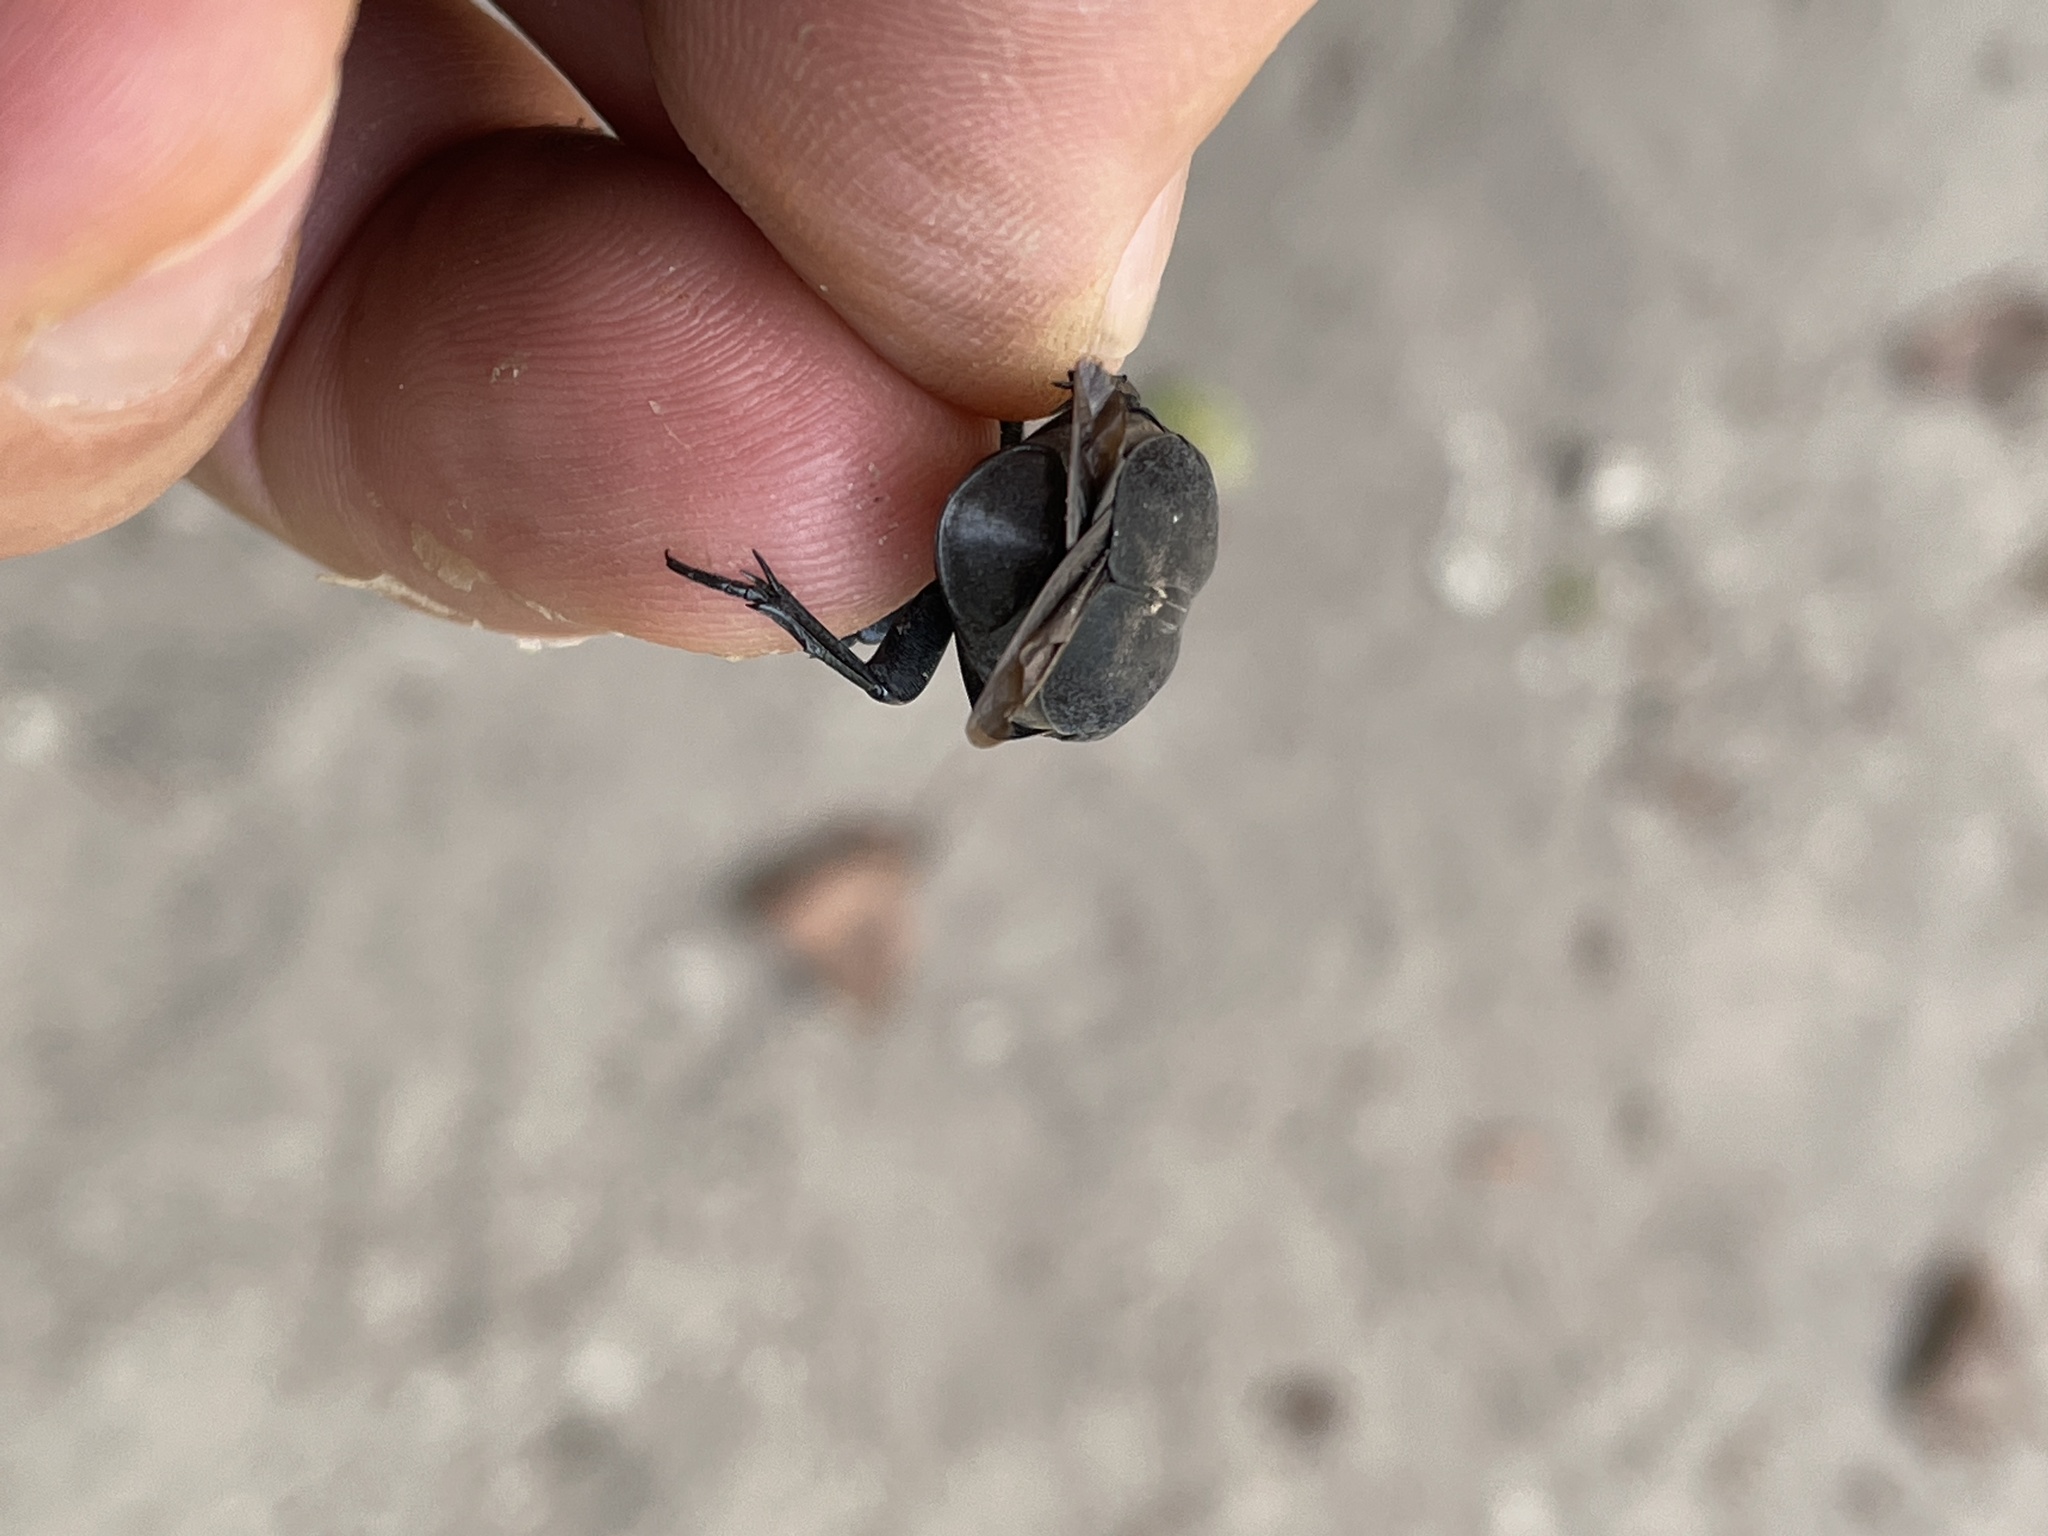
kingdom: Animalia
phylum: Arthropoda
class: Insecta
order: Coleoptera
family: Scarabaeidae
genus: Oplostomus
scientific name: Oplostomus fuligineus
